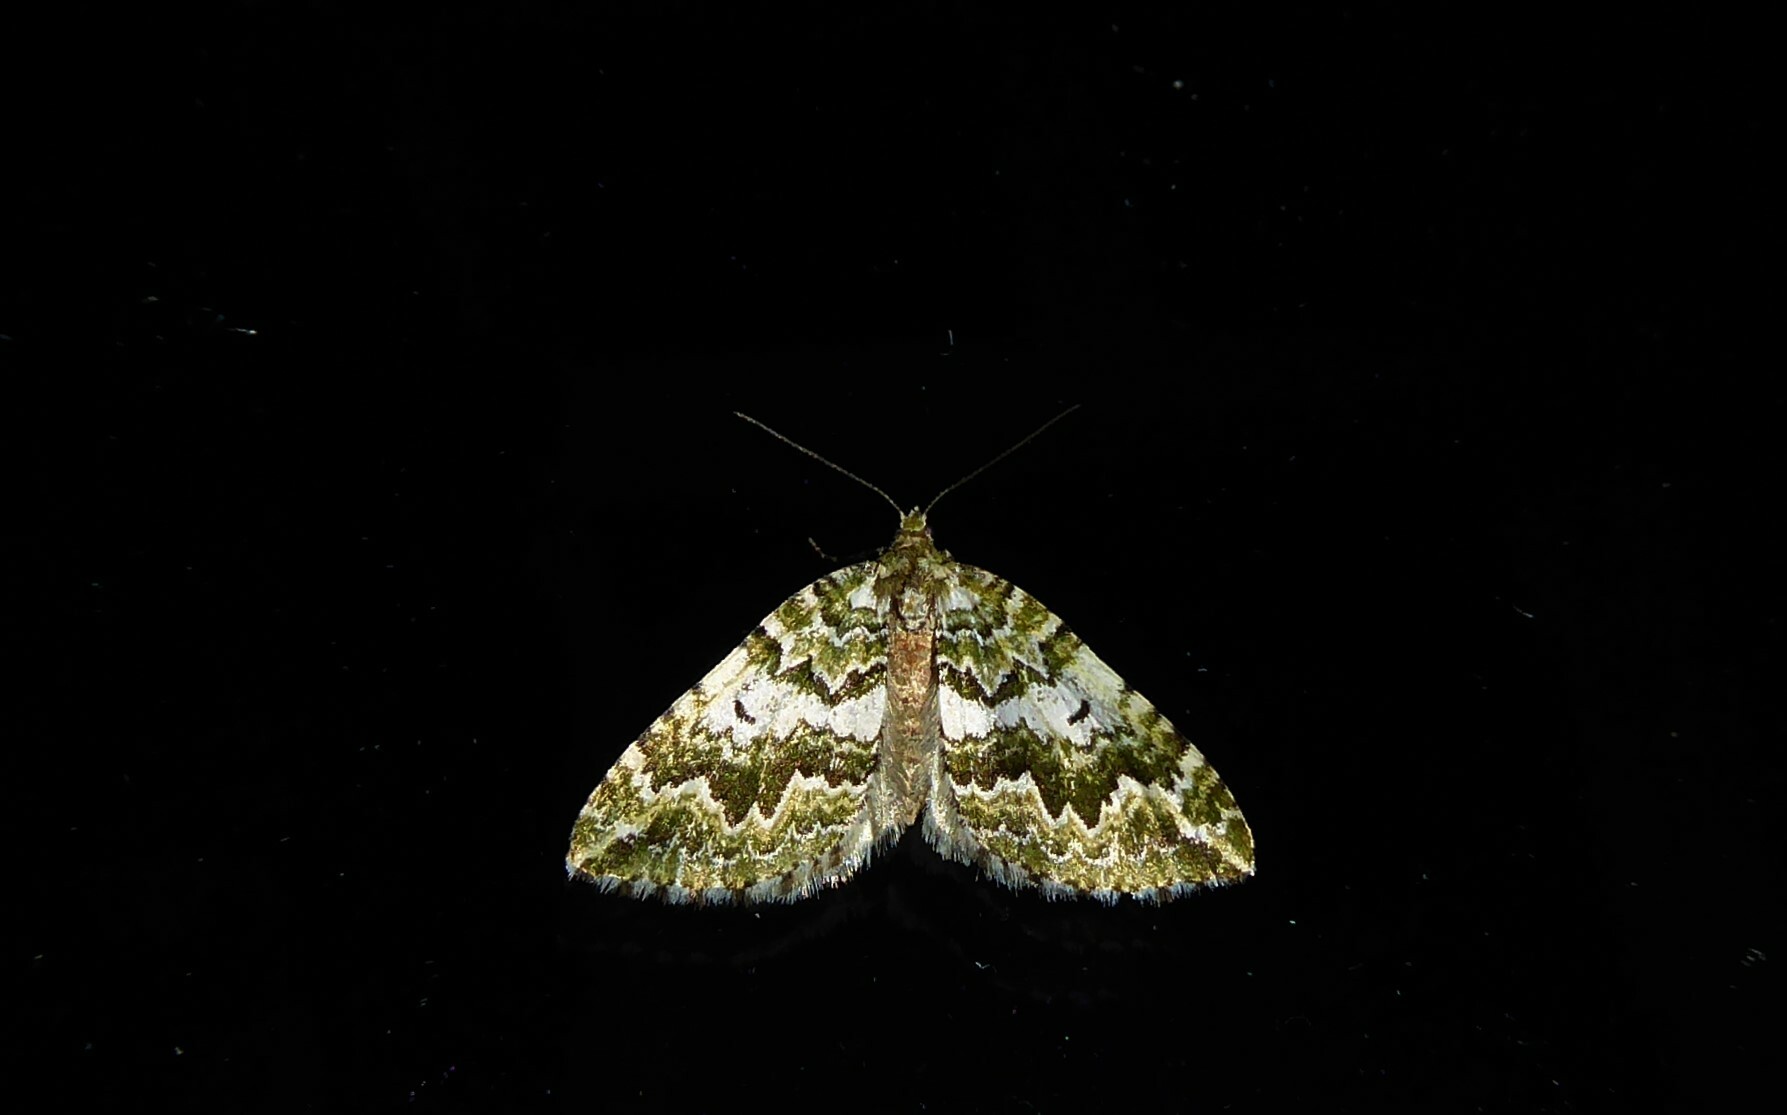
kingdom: Animalia
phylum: Arthropoda
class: Insecta
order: Lepidoptera
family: Geometridae
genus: Asaphodes
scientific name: Asaphodes beata
